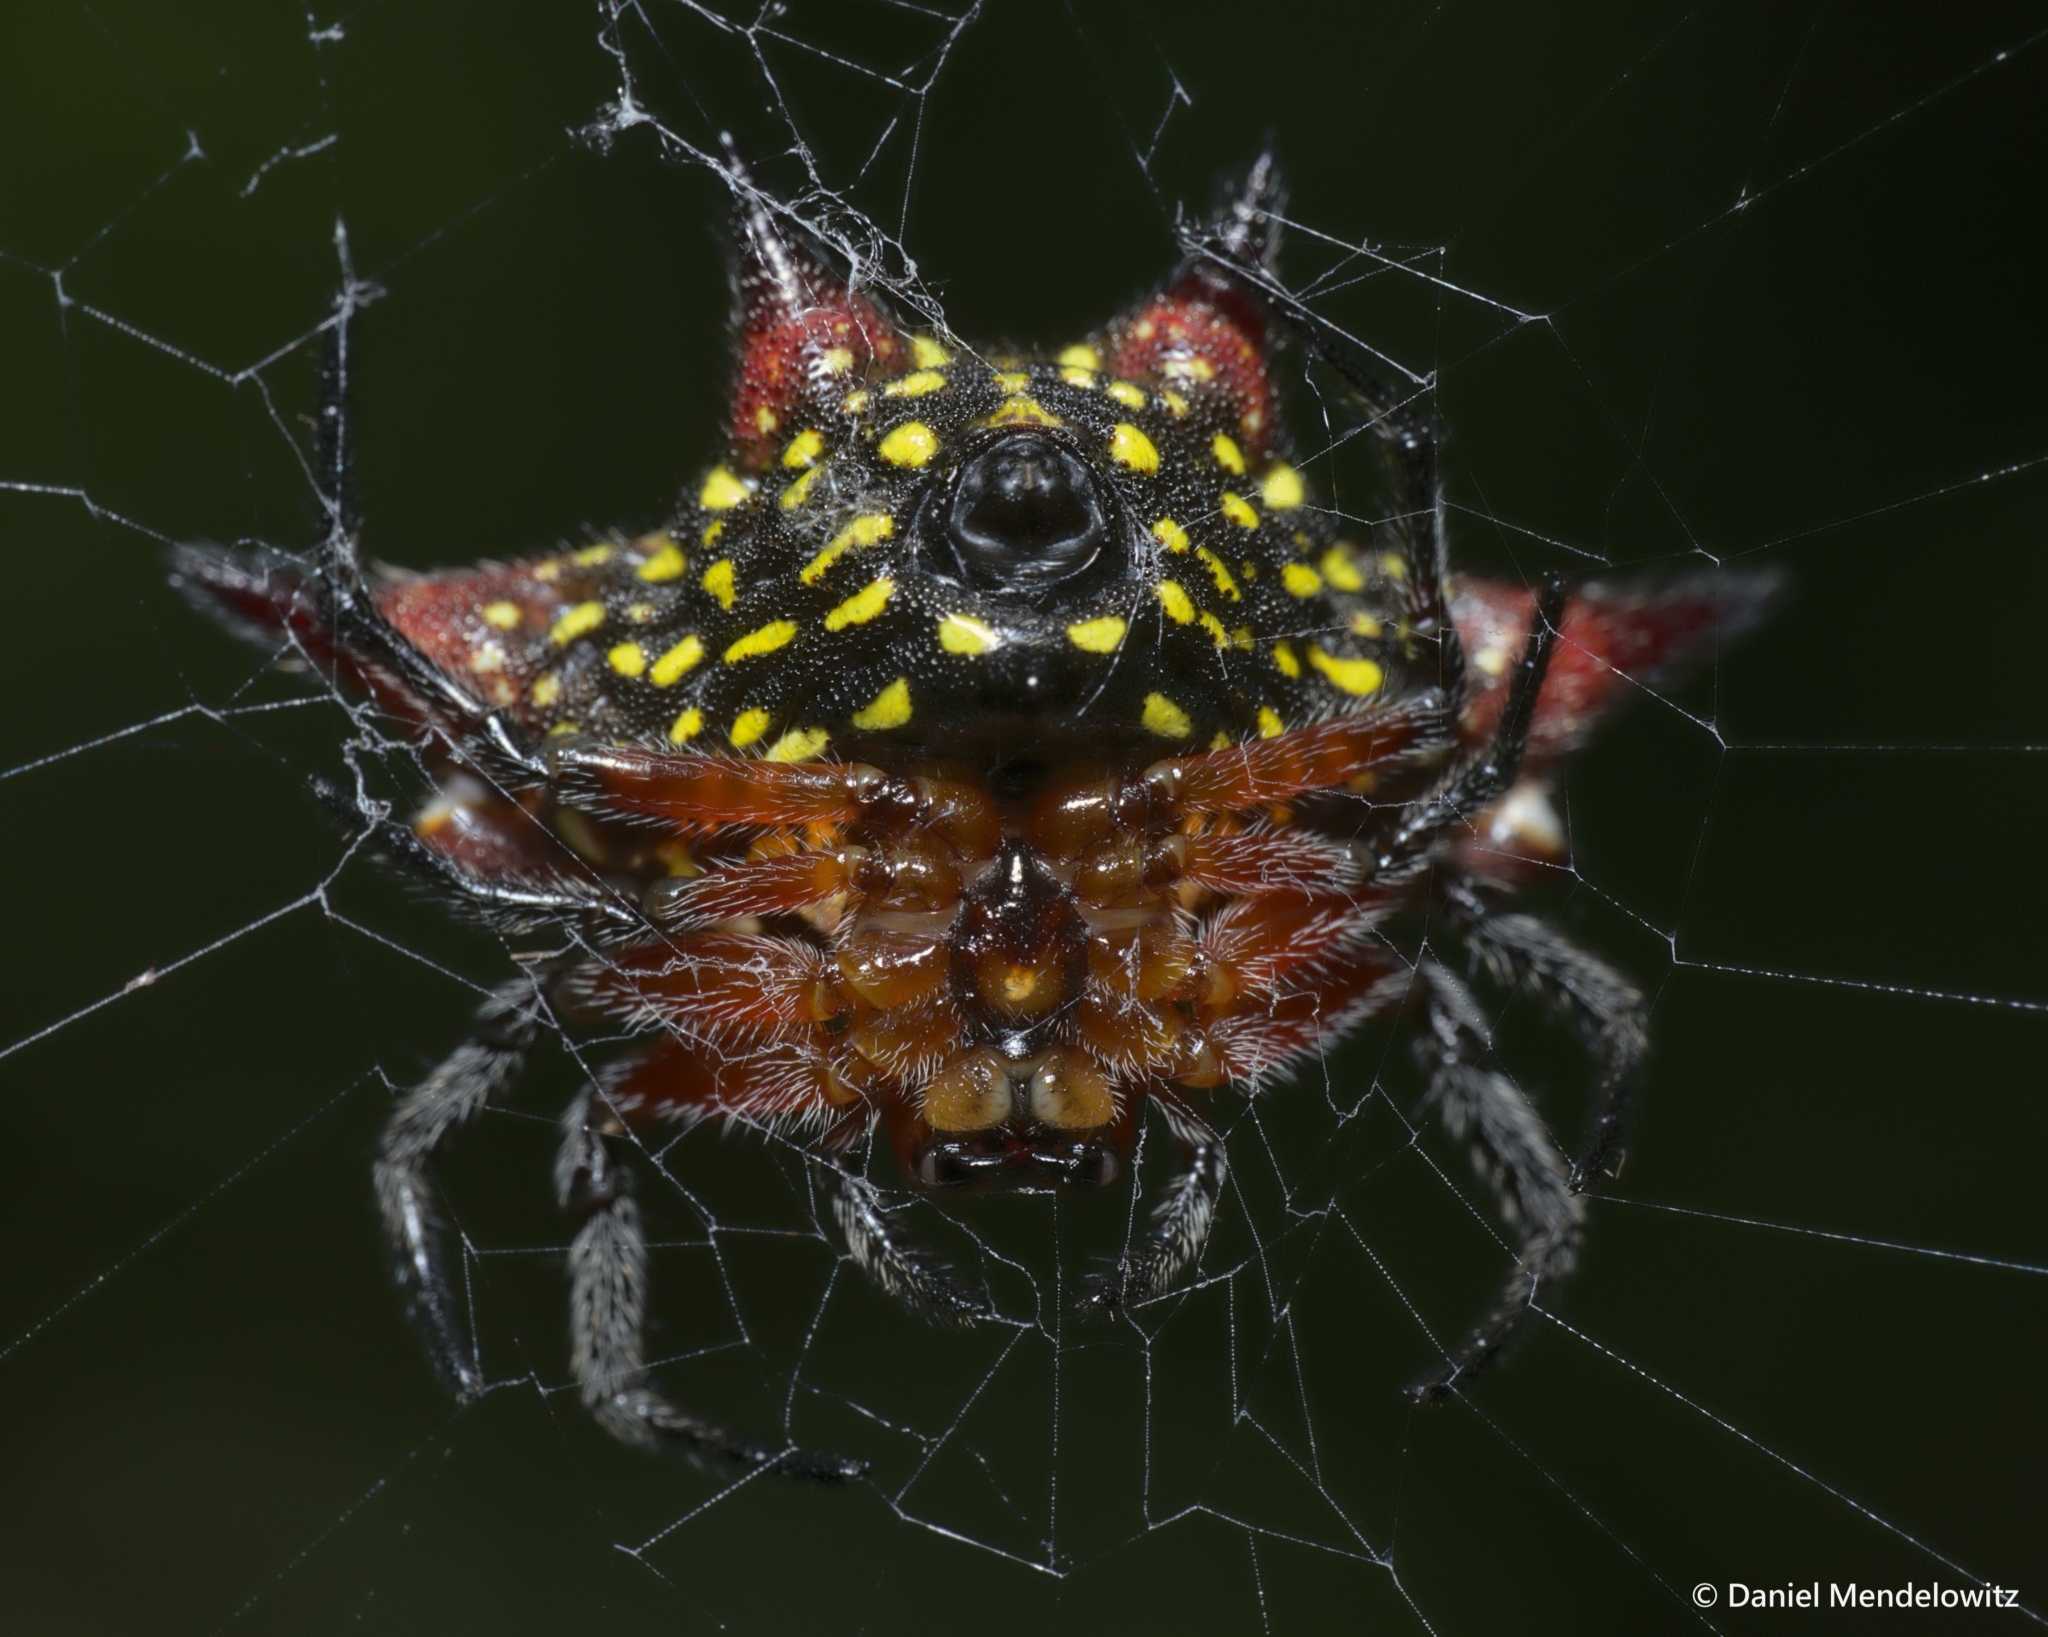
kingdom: Animalia
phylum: Arthropoda
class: Arachnida
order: Araneae
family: Araneidae
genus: Gasteracantha
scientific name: Gasteracantha sanguinolenta
